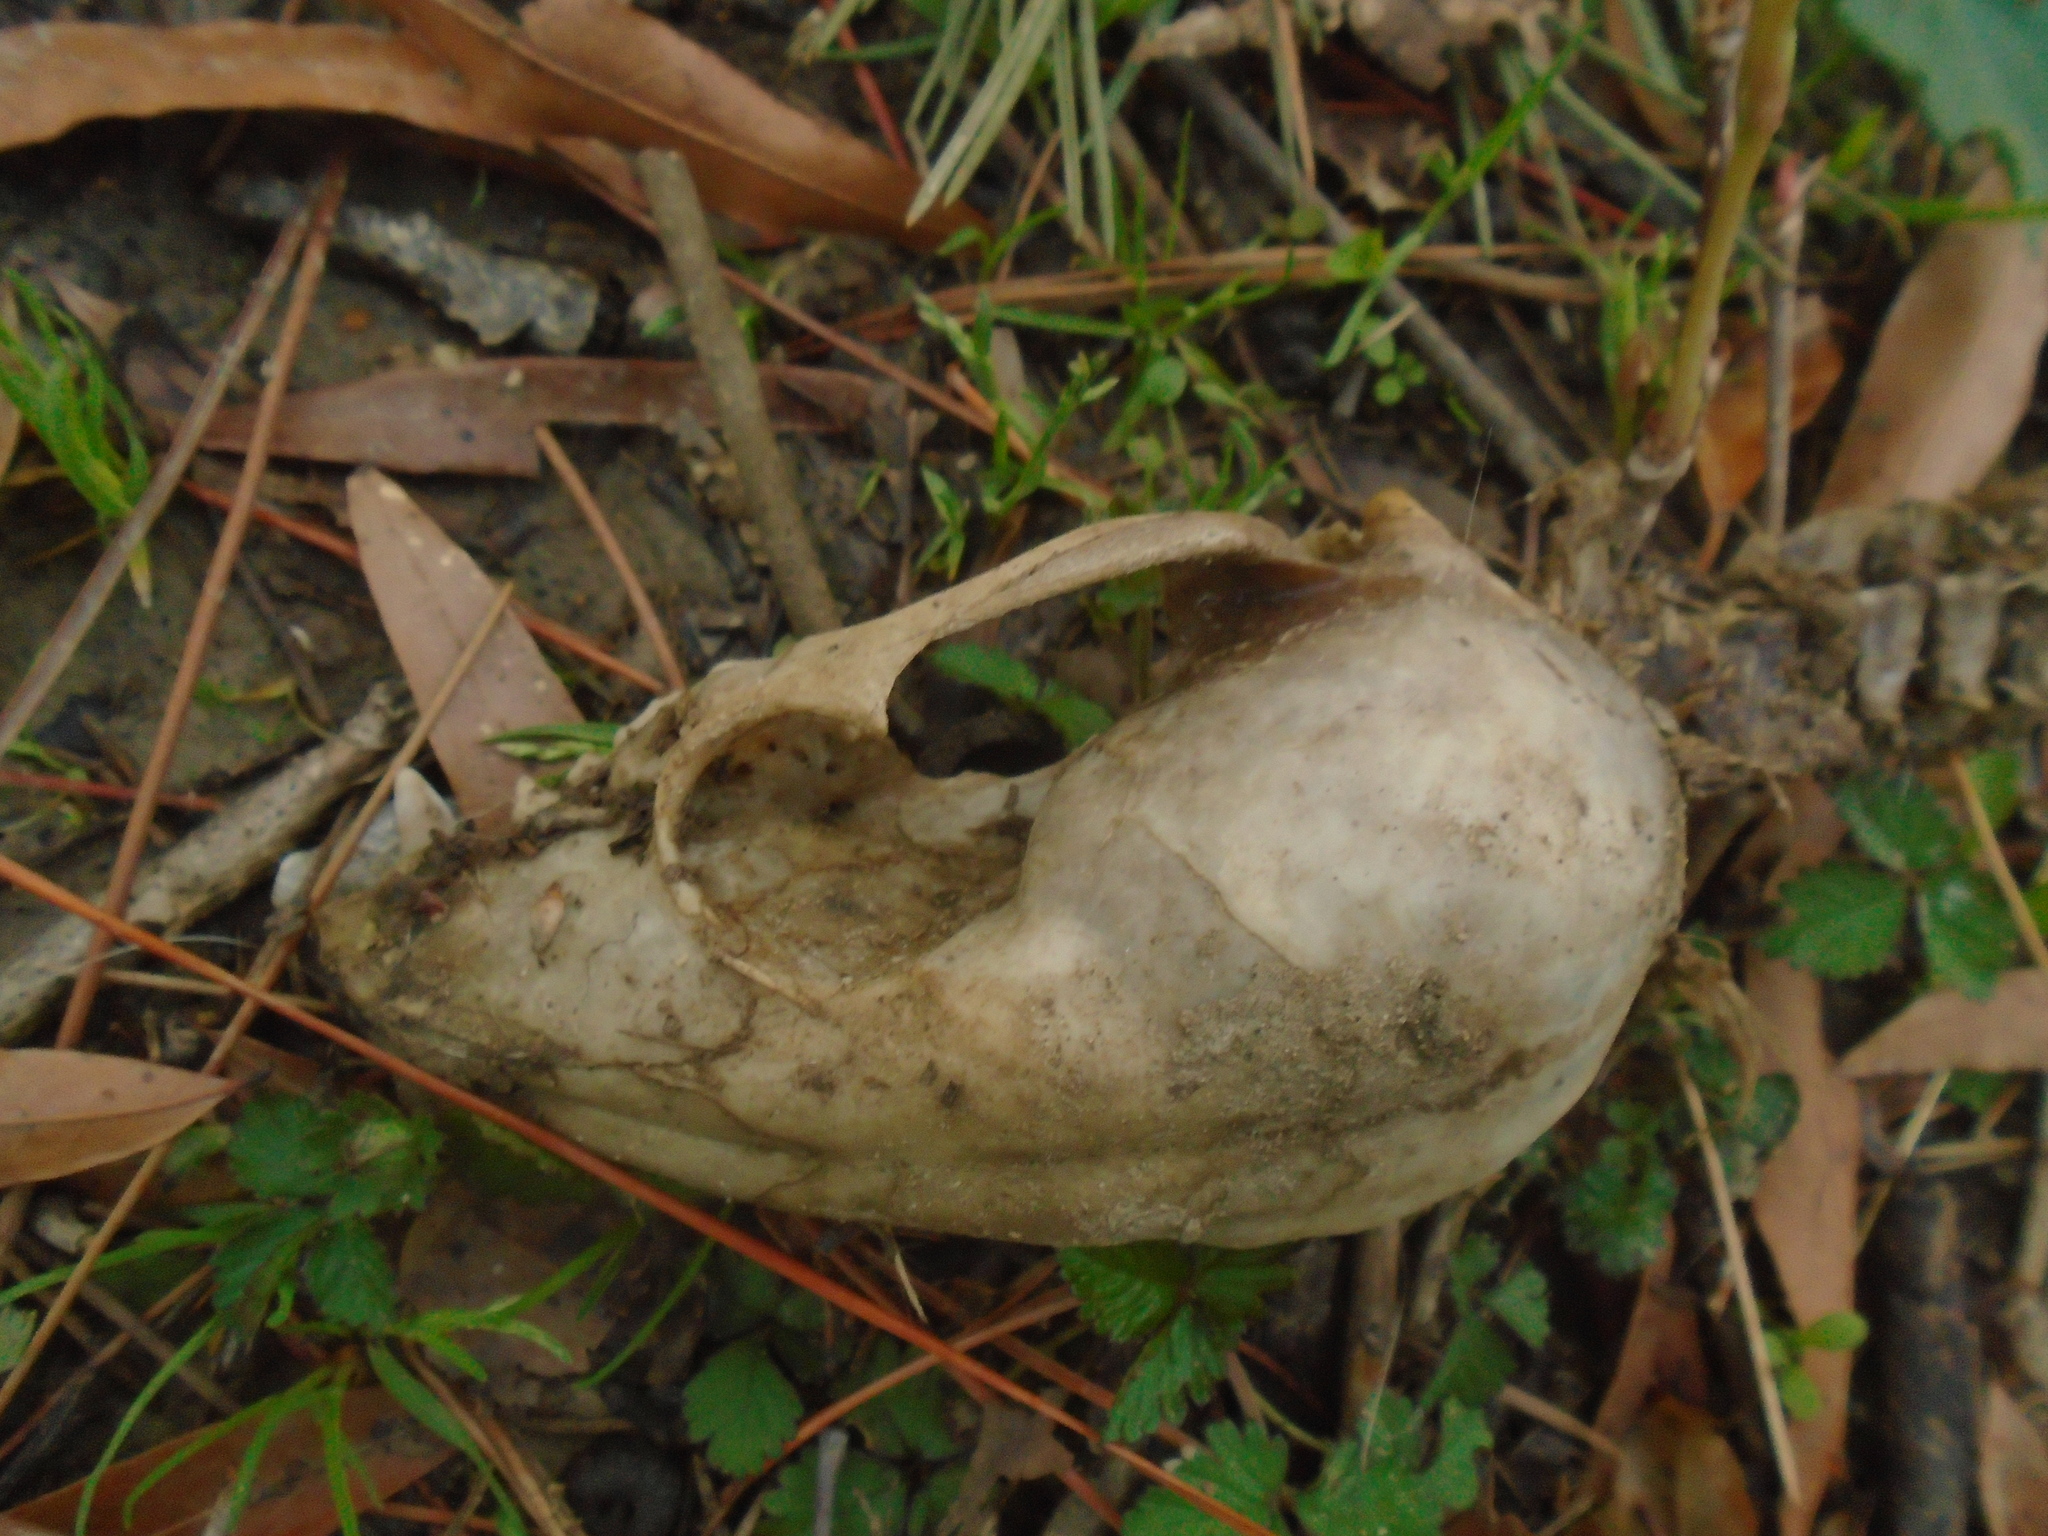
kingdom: Animalia
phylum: Chordata
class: Mammalia
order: Carnivora
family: Procyonidae
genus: Procyon
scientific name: Procyon lotor
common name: Raccoon
